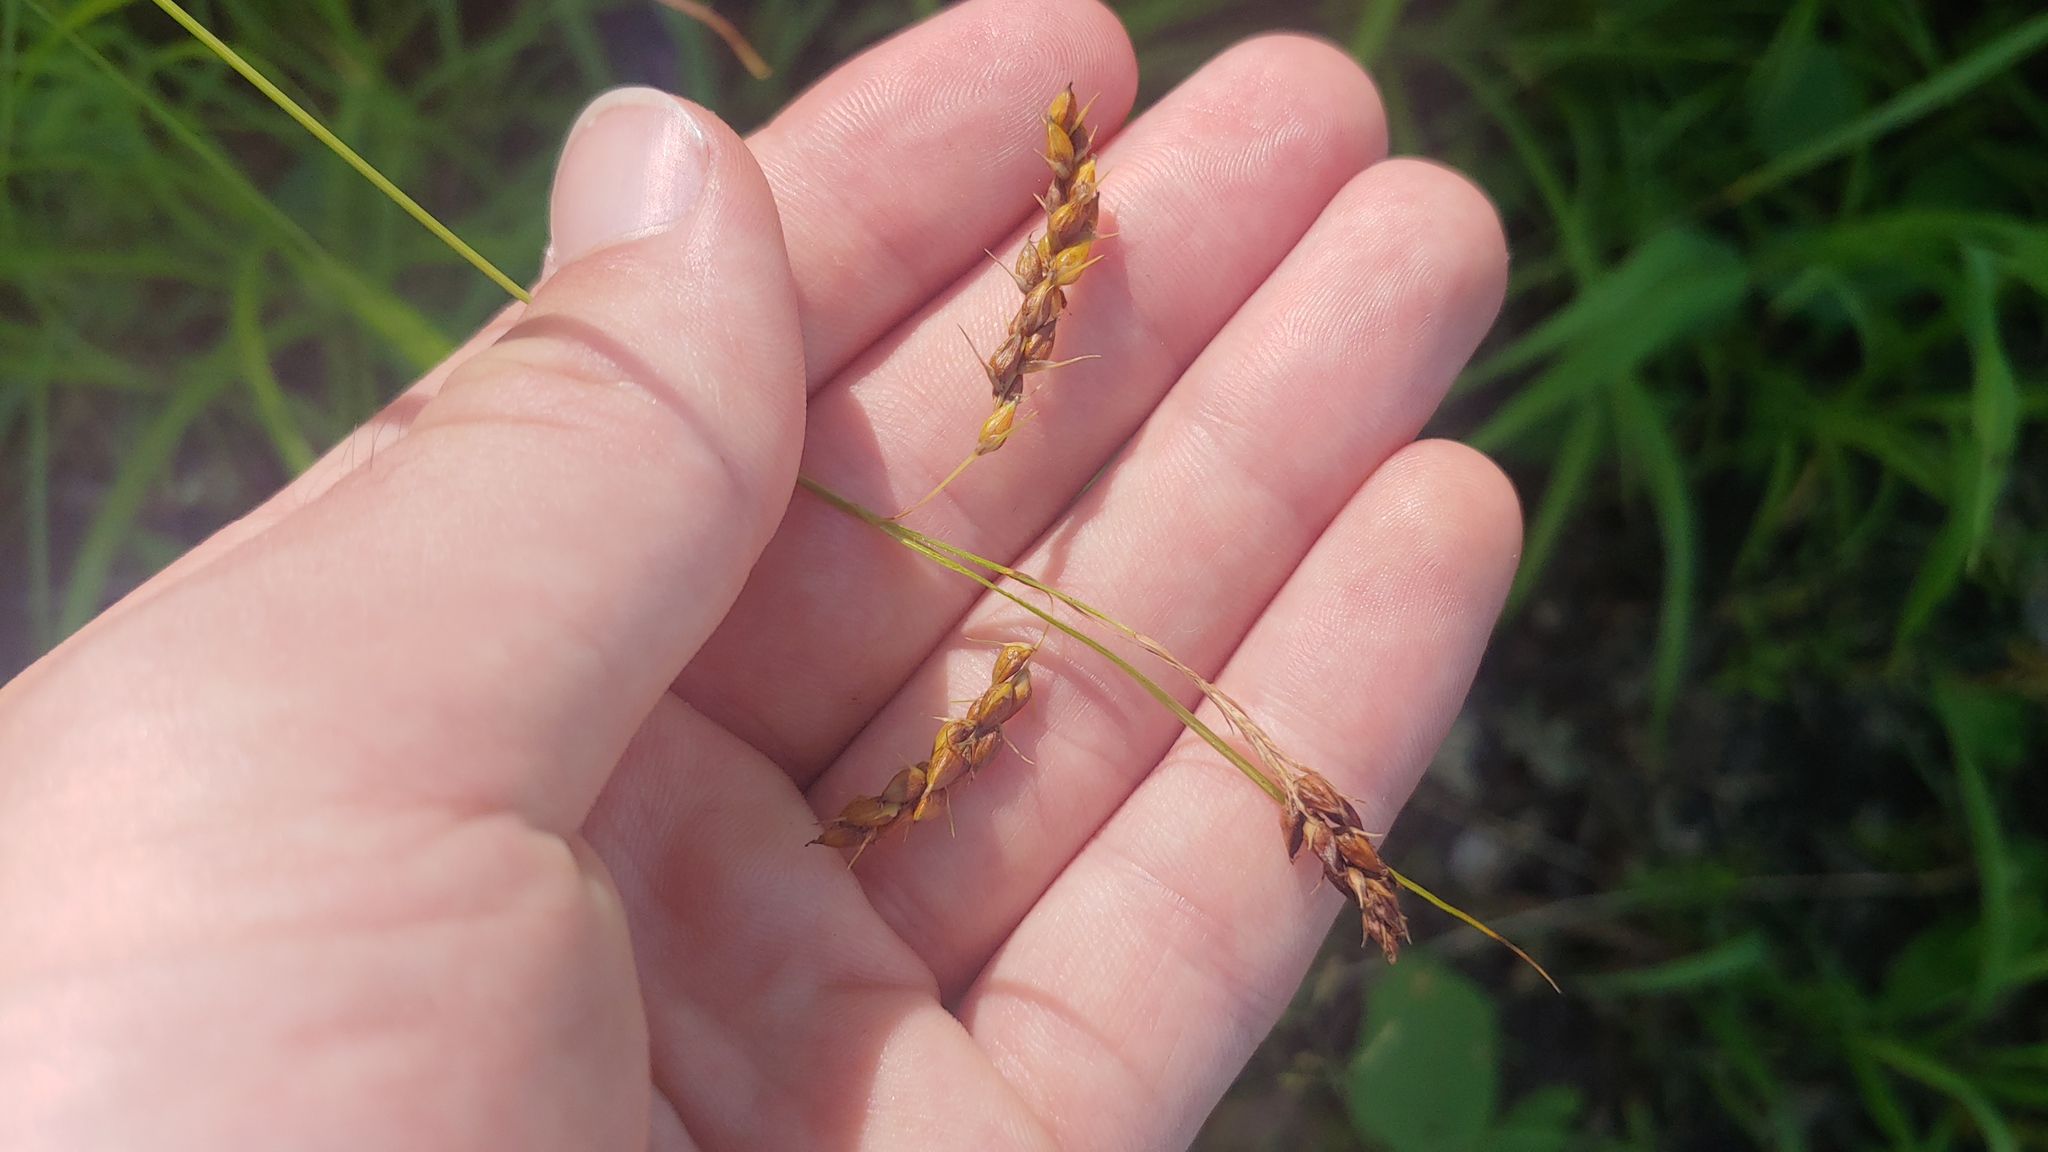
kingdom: Plantae
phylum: Tracheophyta
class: Liliopsida
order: Poales
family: Cyperaceae
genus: Carex
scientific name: Carex davisii
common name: Davis' sedge
